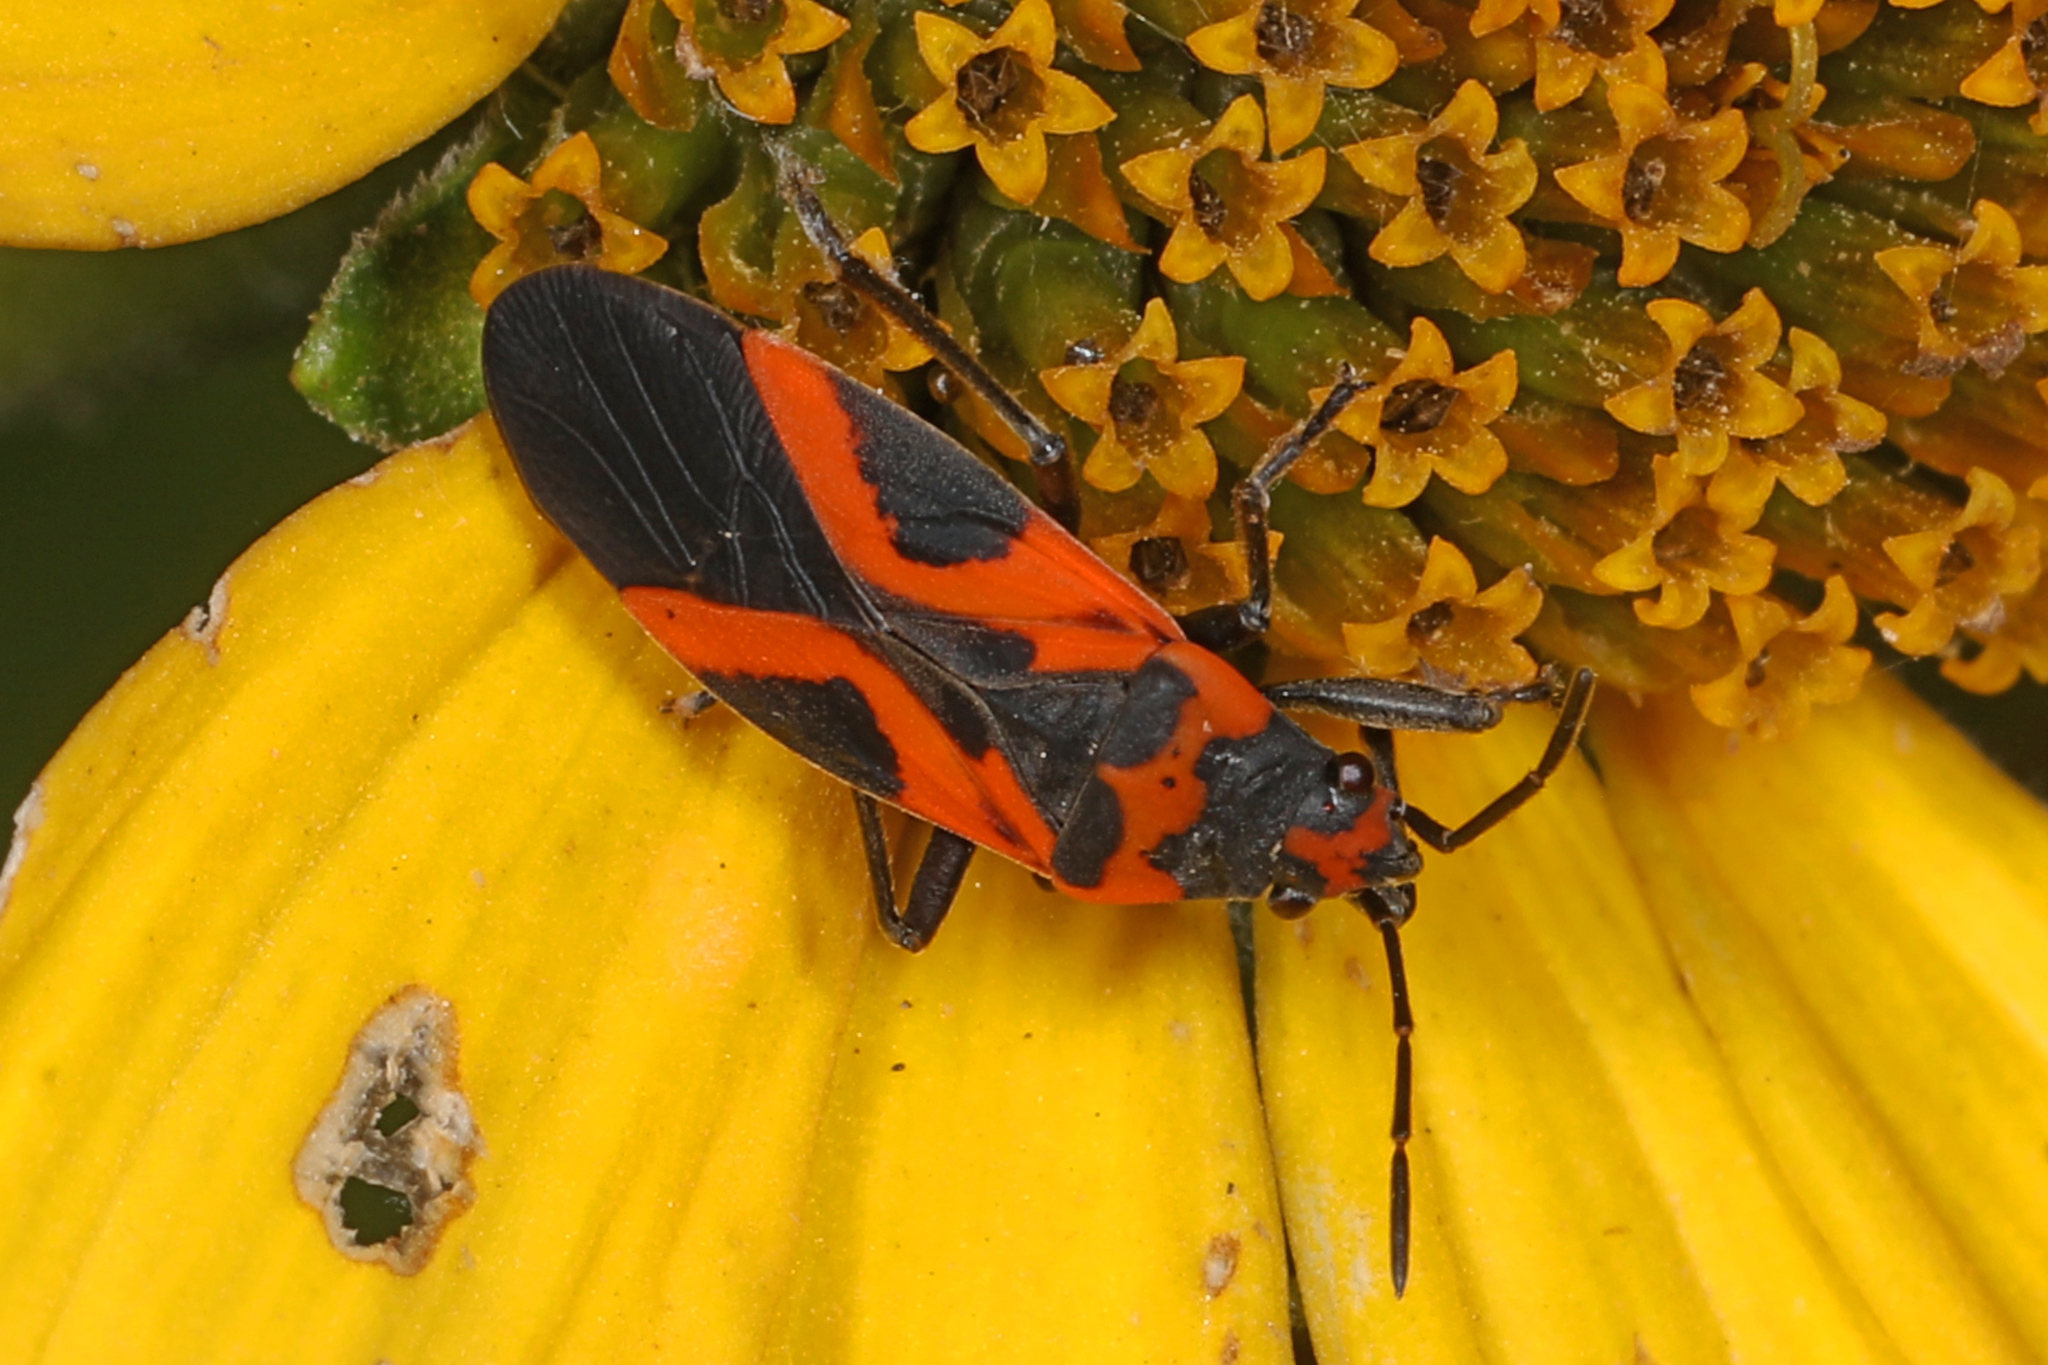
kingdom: Animalia
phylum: Arthropoda
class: Insecta
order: Hemiptera
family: Lygaeidae
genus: Lygaeus
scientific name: Lygaeus turcicus
